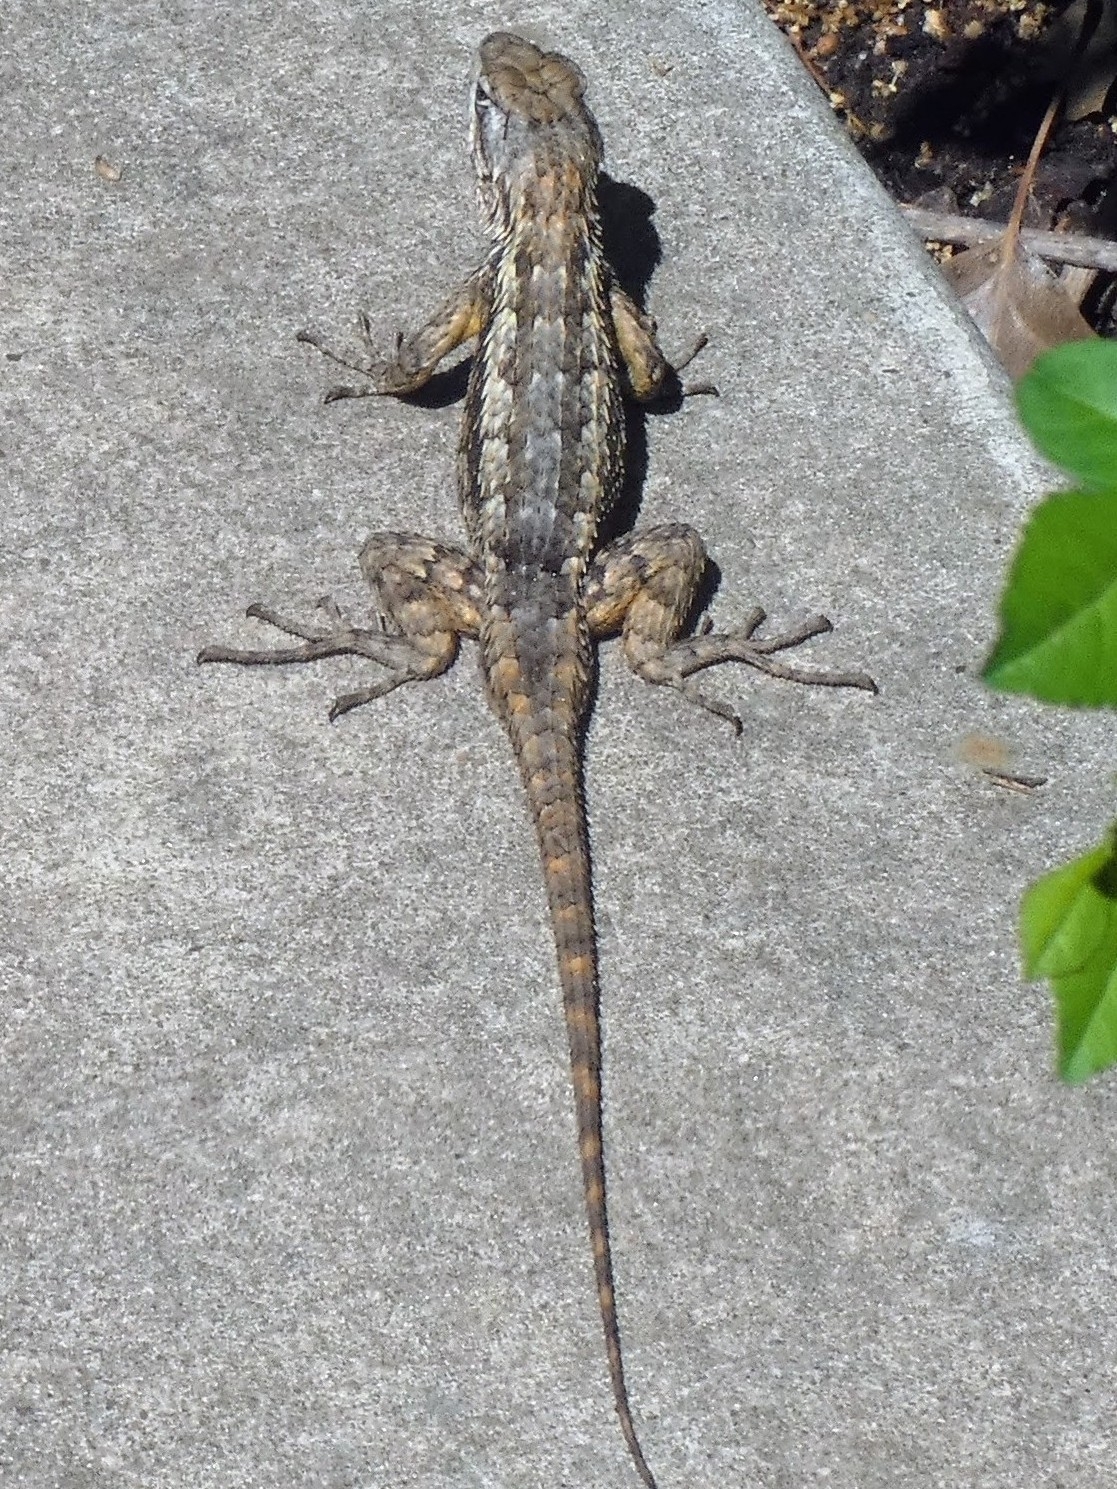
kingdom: Animalia
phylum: Chordata
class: Squamata
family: Phrynosomatidae
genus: Sceloporus
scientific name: Sceloporus olivaceus
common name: Texas spiny lizard
